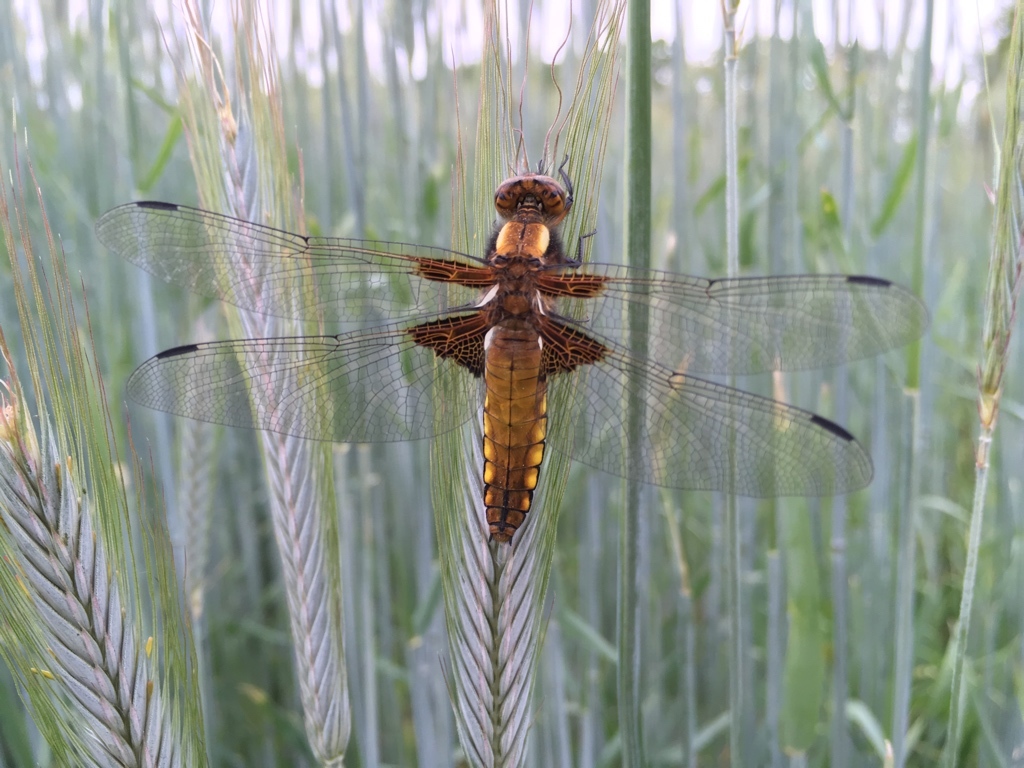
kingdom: Animalia
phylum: Arthropoda
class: Insecta
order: Odonata
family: Libellulidae
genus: Libellula
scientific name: Libellula depressa
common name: Broad-bodied chaser
